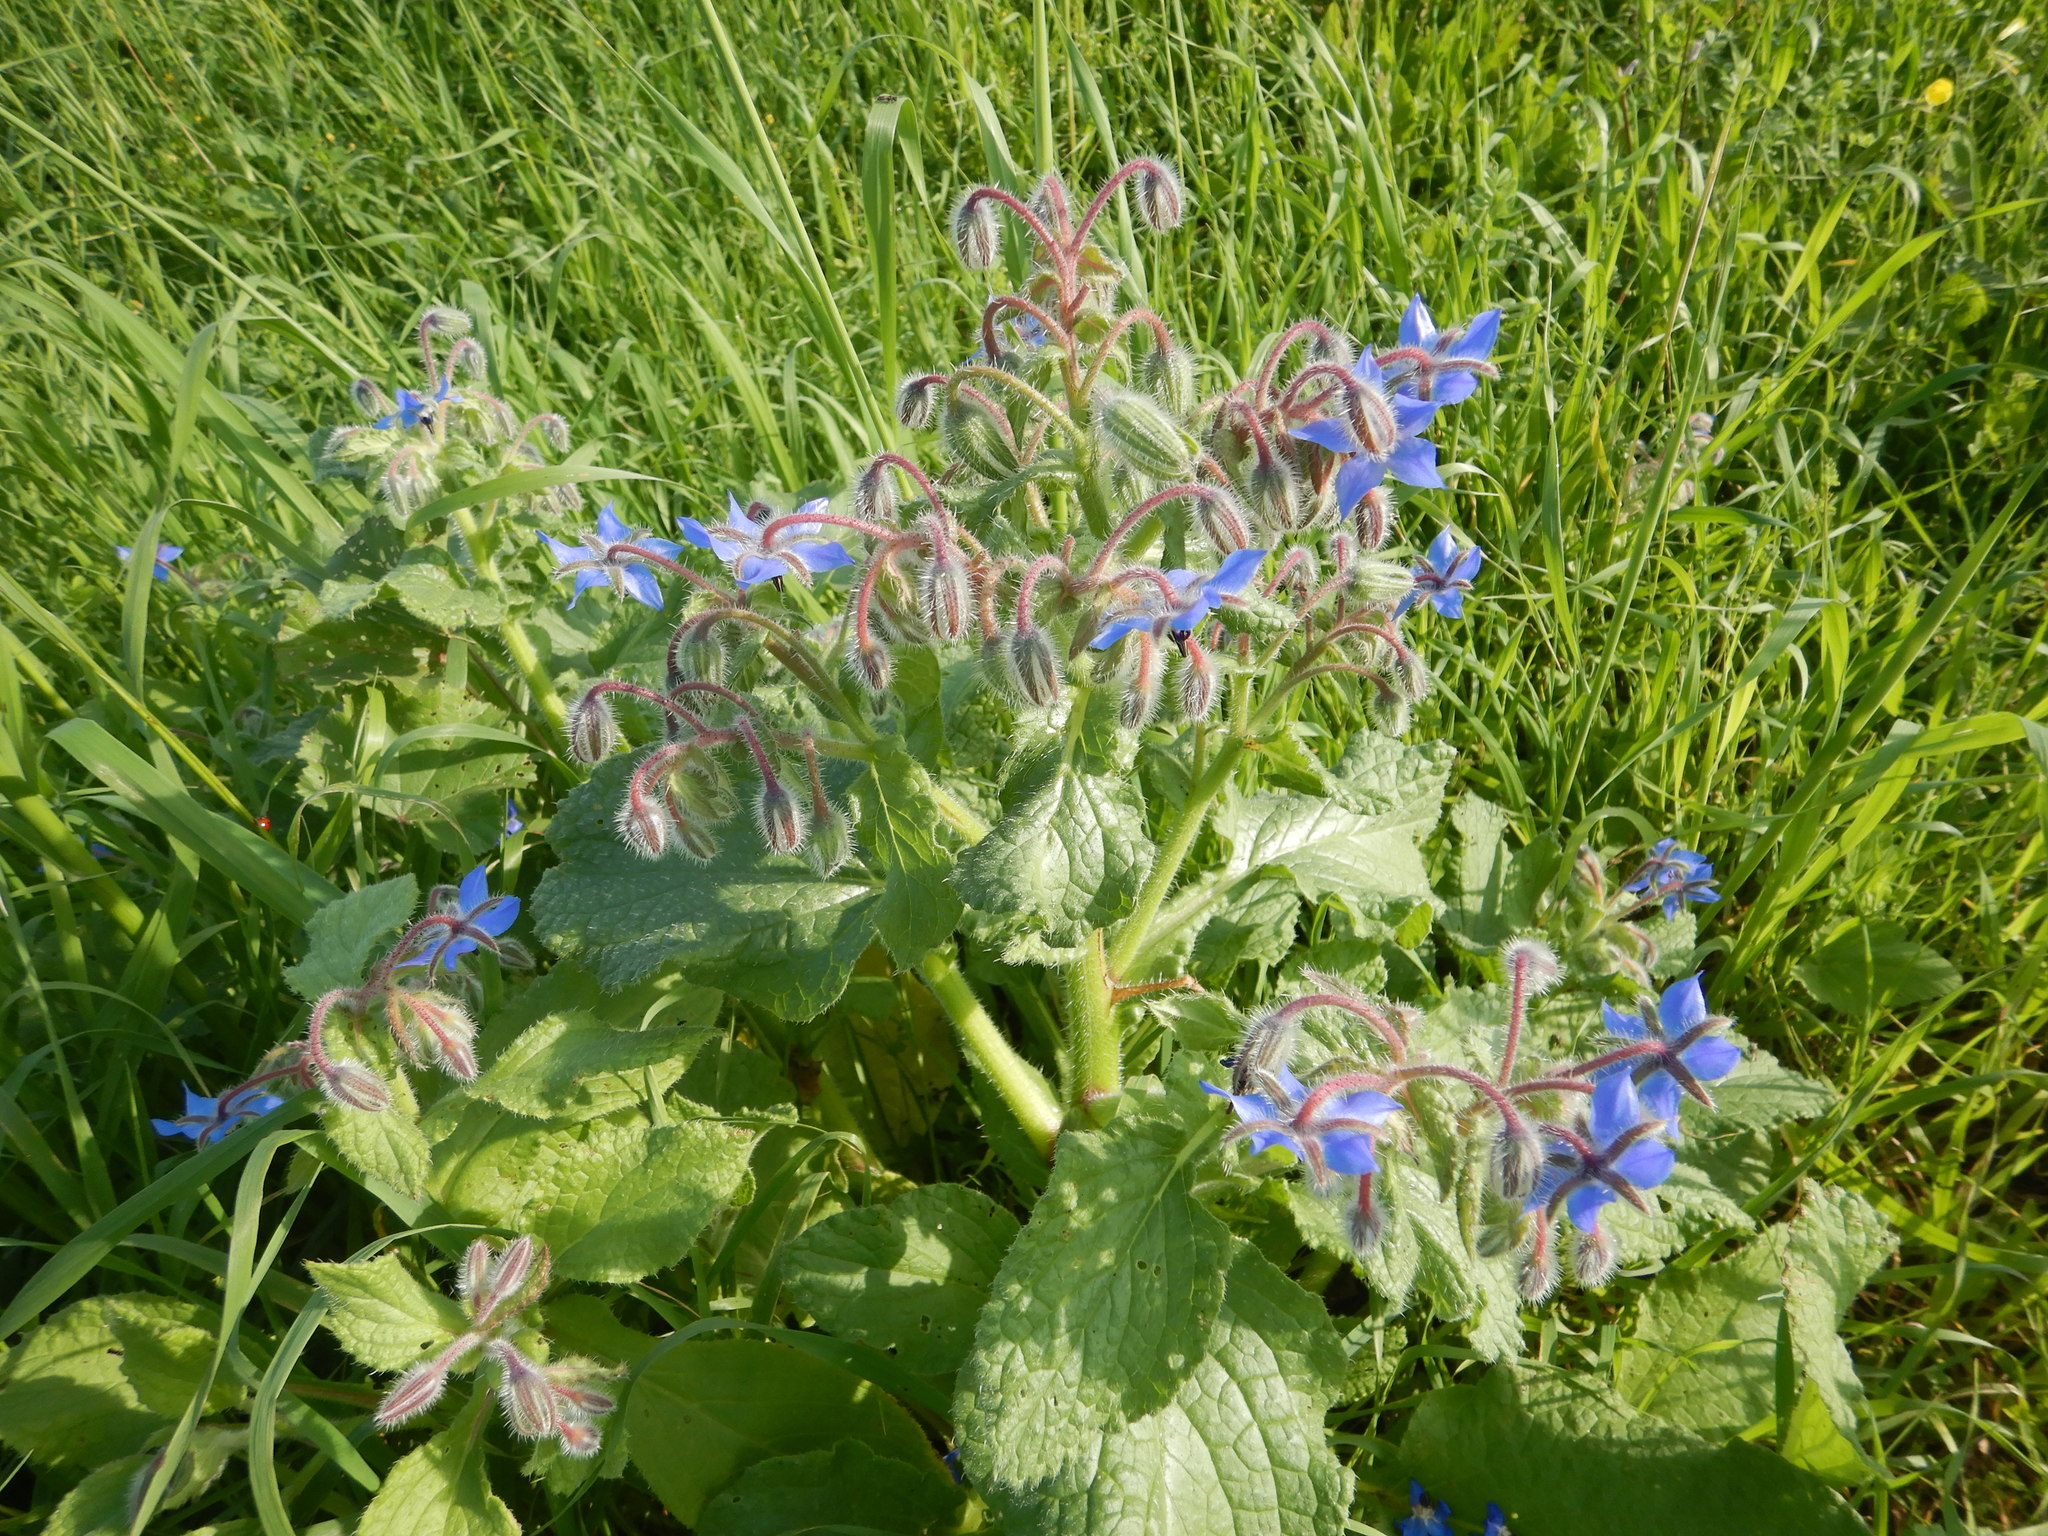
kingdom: Plantae
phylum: Tracheophyta
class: Magnoliopsida
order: Boraginales
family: Boraginaceae
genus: Borago
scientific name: Borago officinalis
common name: Borage
